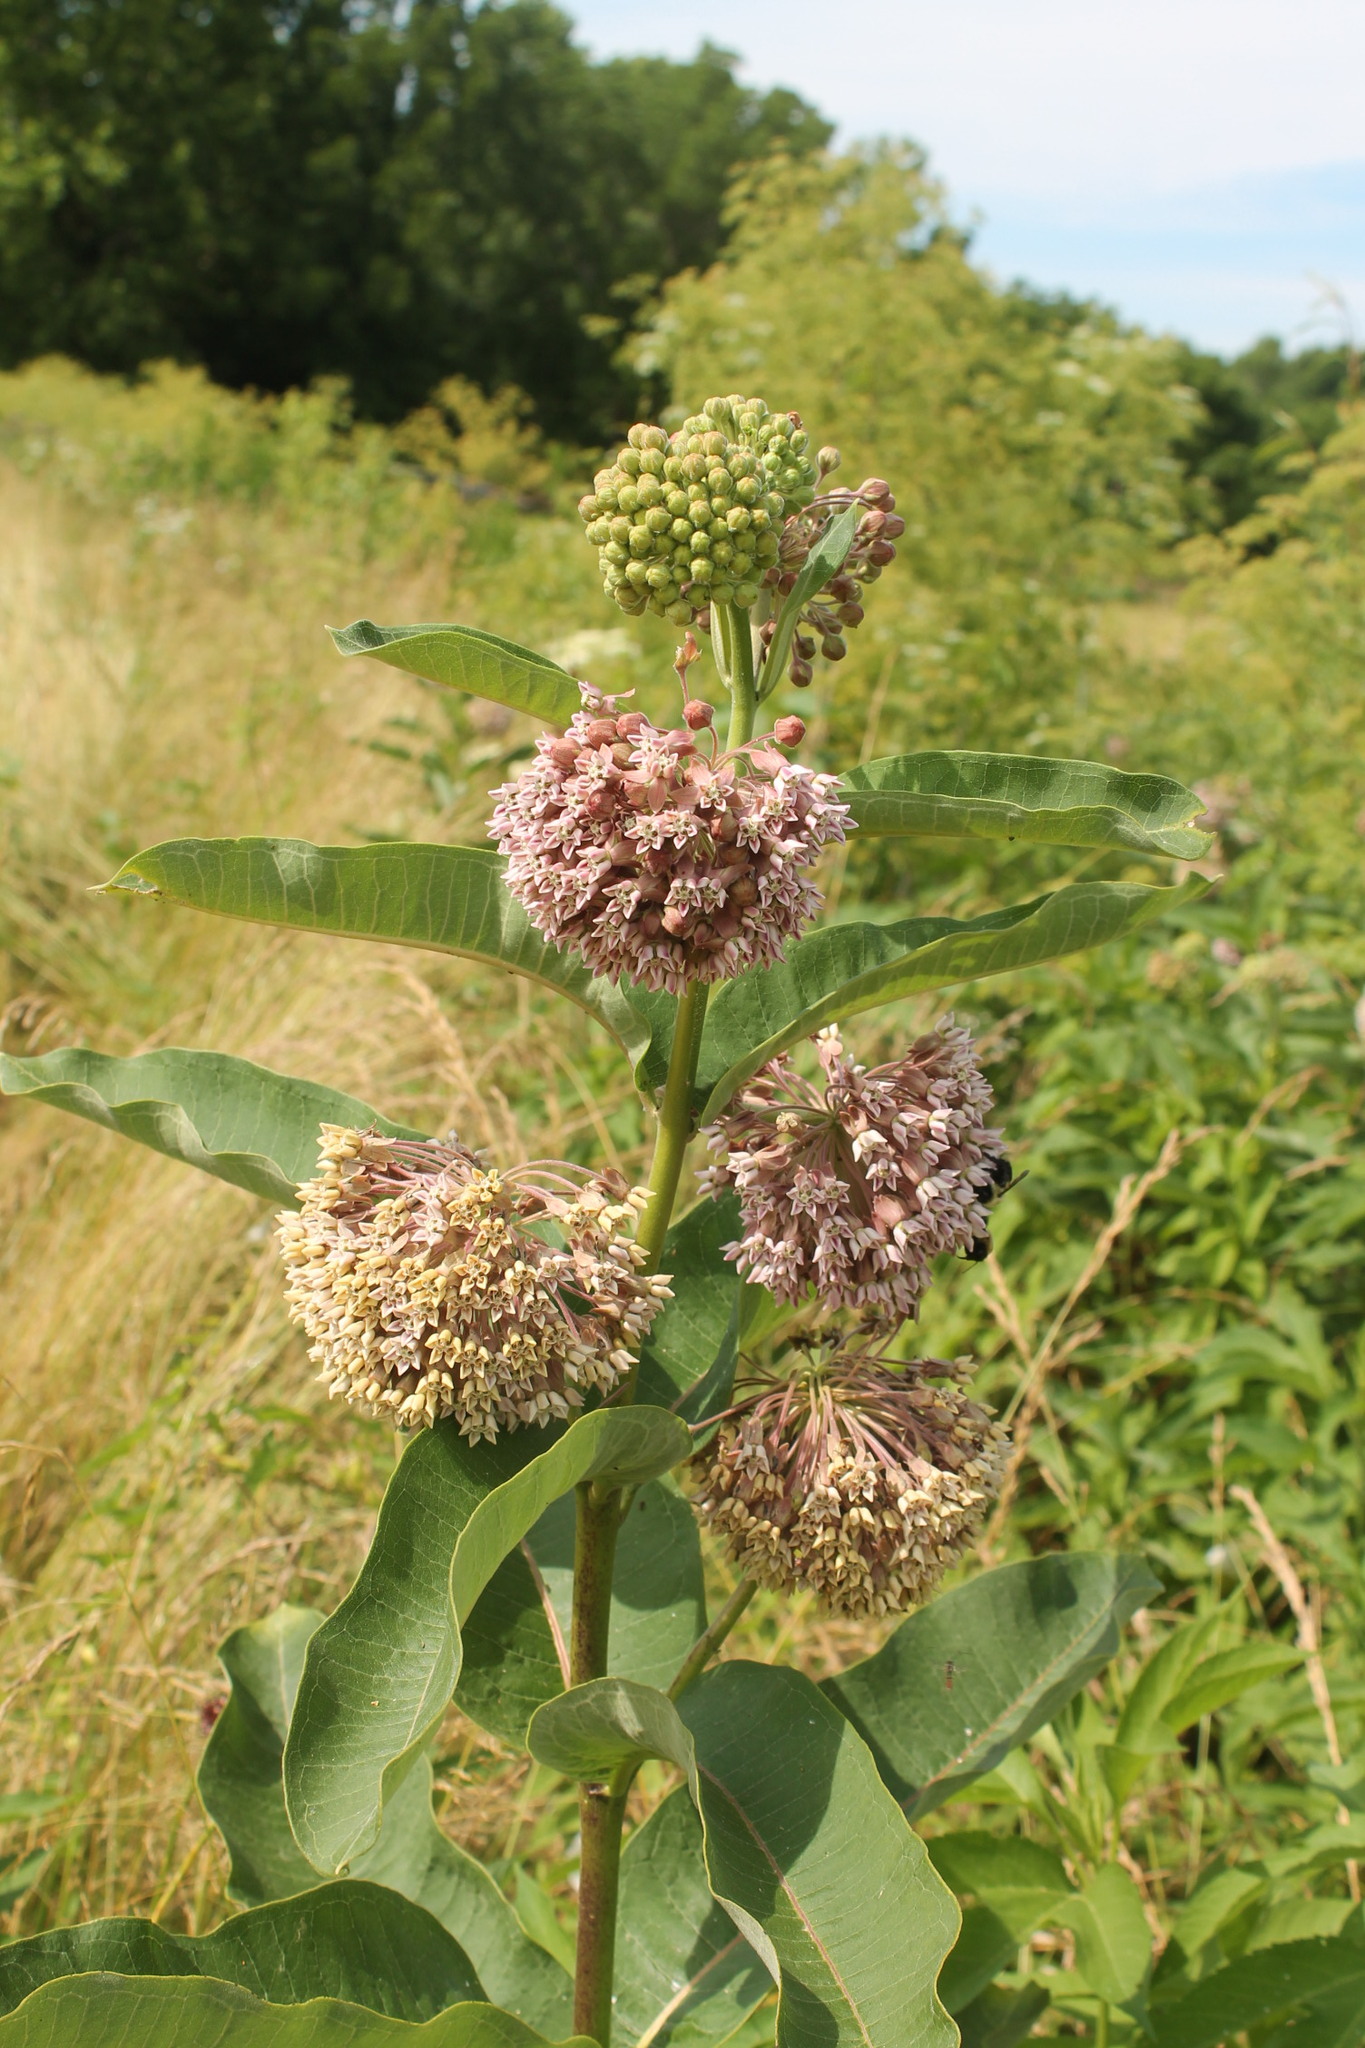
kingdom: Plantae
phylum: Tracheophyta
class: Magnoliopsida
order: Gentianales
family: Apocynaceae
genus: Asclepias
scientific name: Asclepias syriaca
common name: Common milkweed
